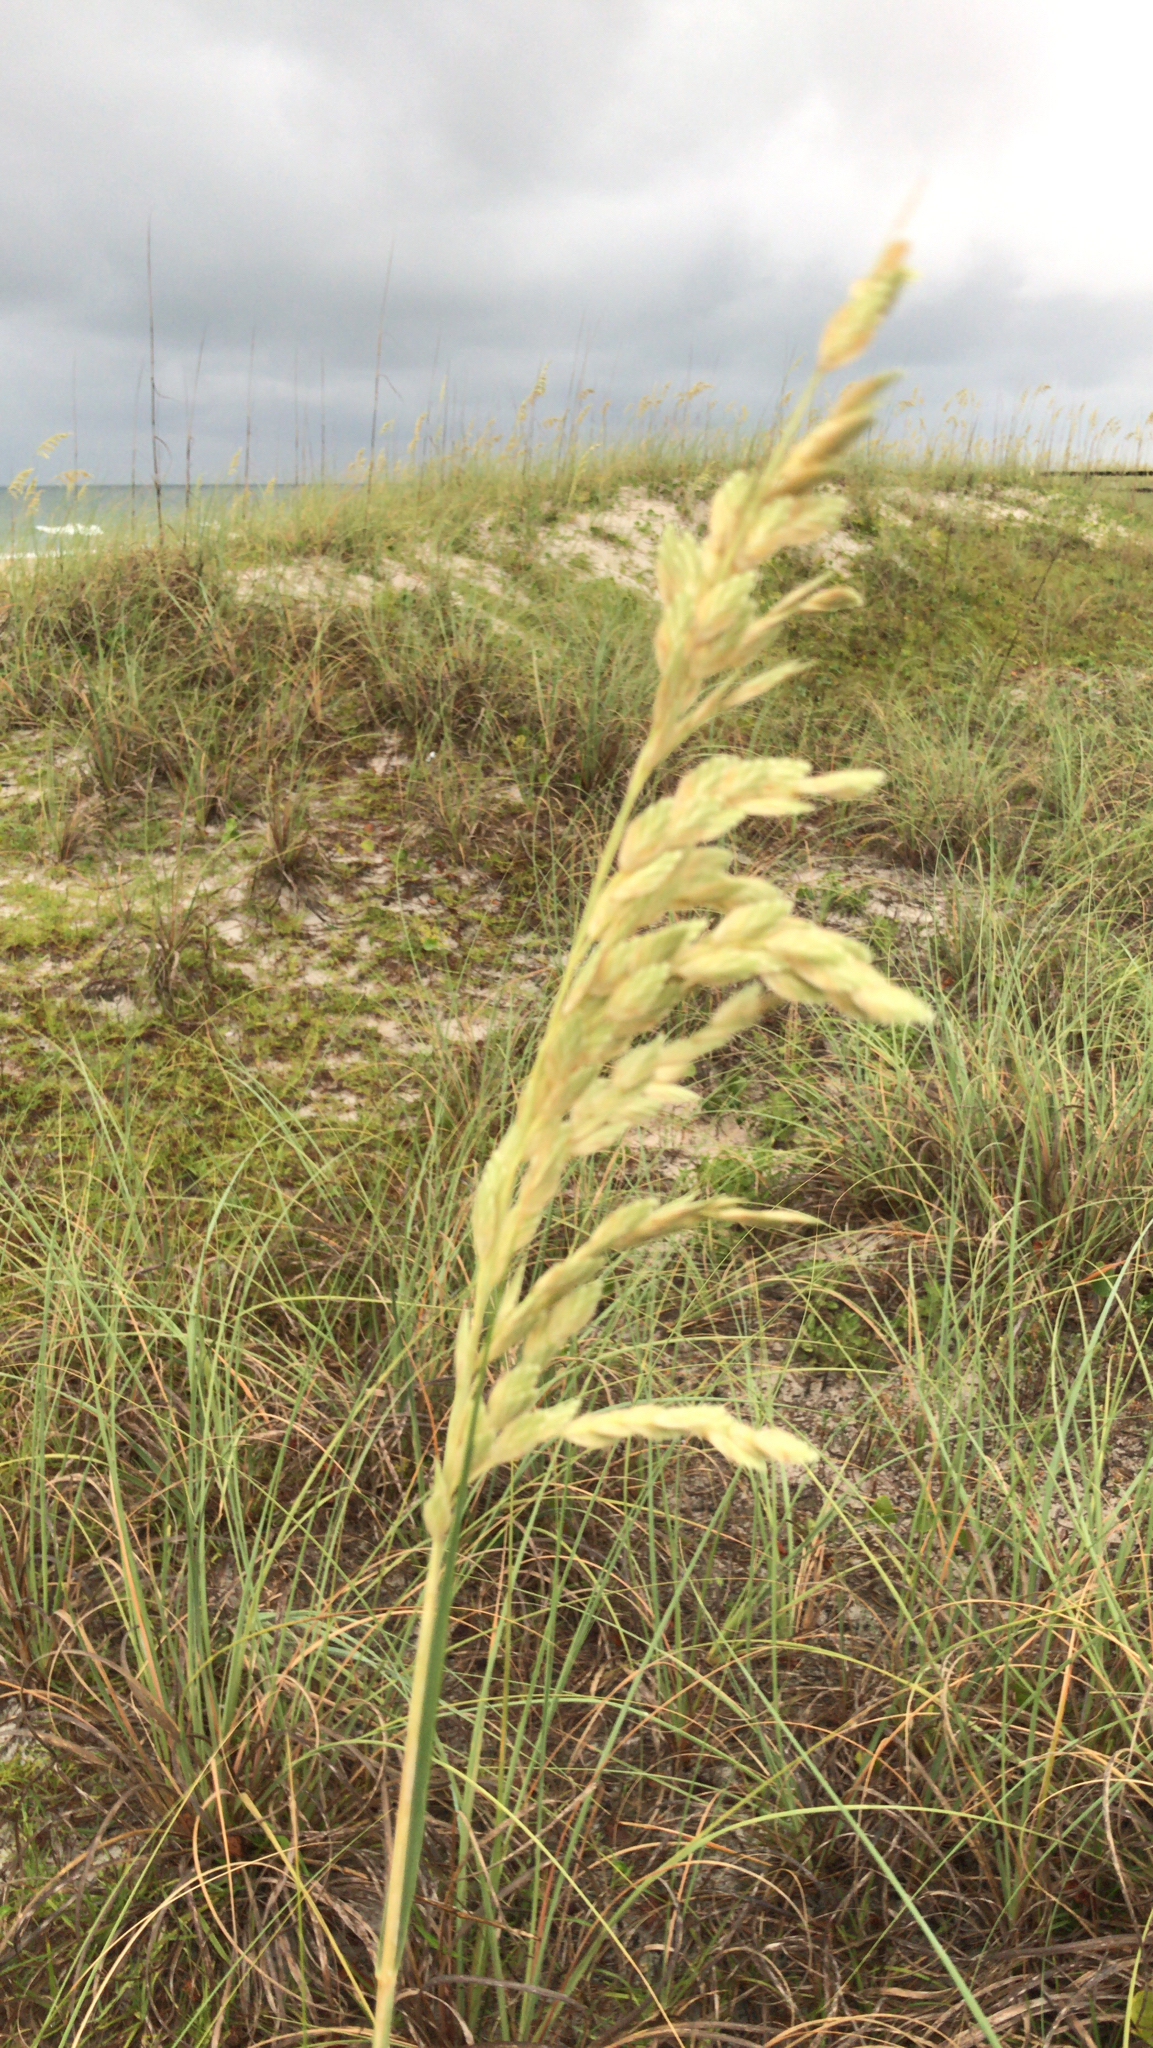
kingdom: Plantae
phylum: Tracheophyta
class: Liliopsida
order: Poales
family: Poaceae
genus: Uniola
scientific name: Uniola paniculata
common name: Seaside-oats
